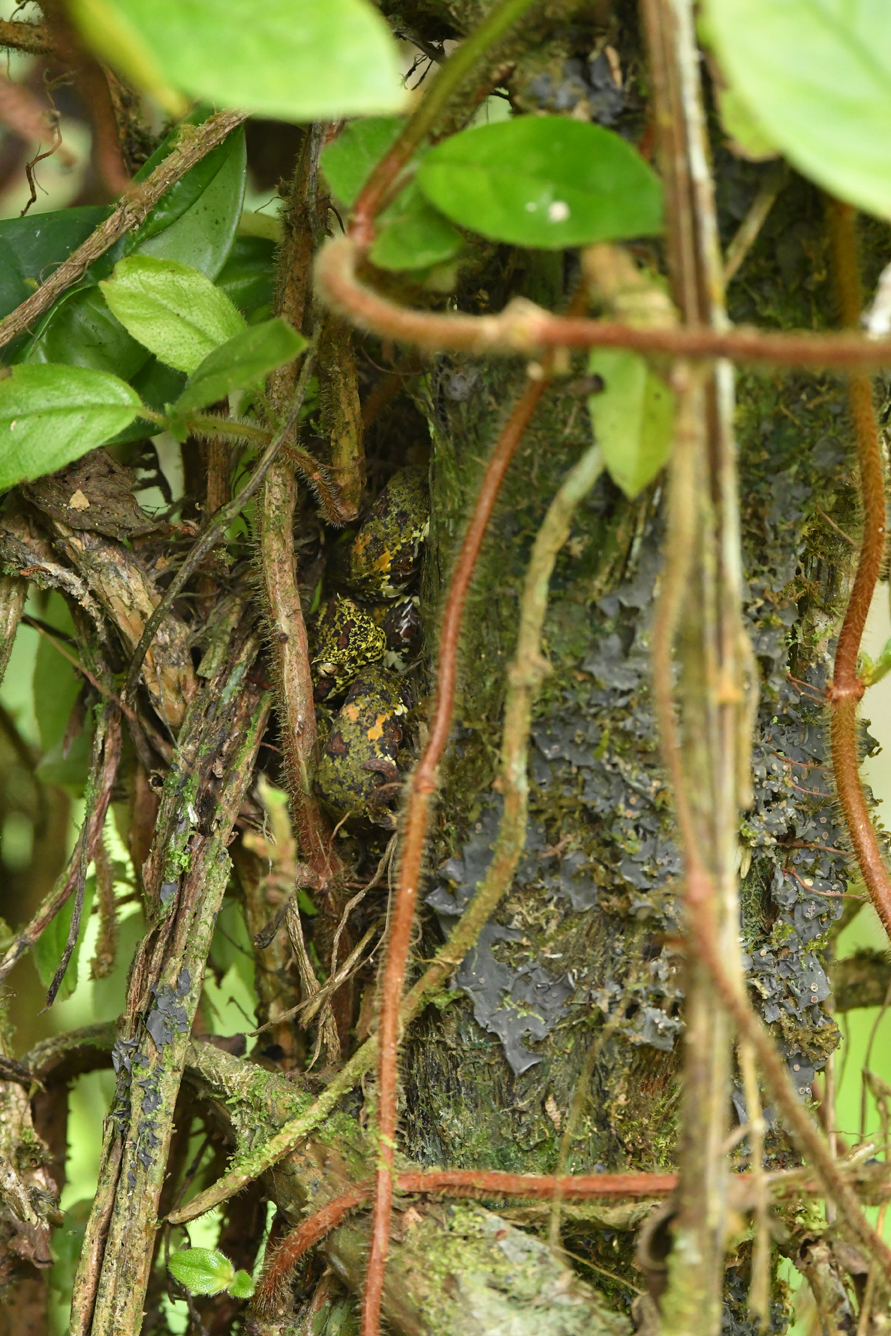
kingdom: Animalia
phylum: Chordata
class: Squamata
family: Viperidae
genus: Bothriechis
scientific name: Bothriechis schlegelii
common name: Eyelash viper
